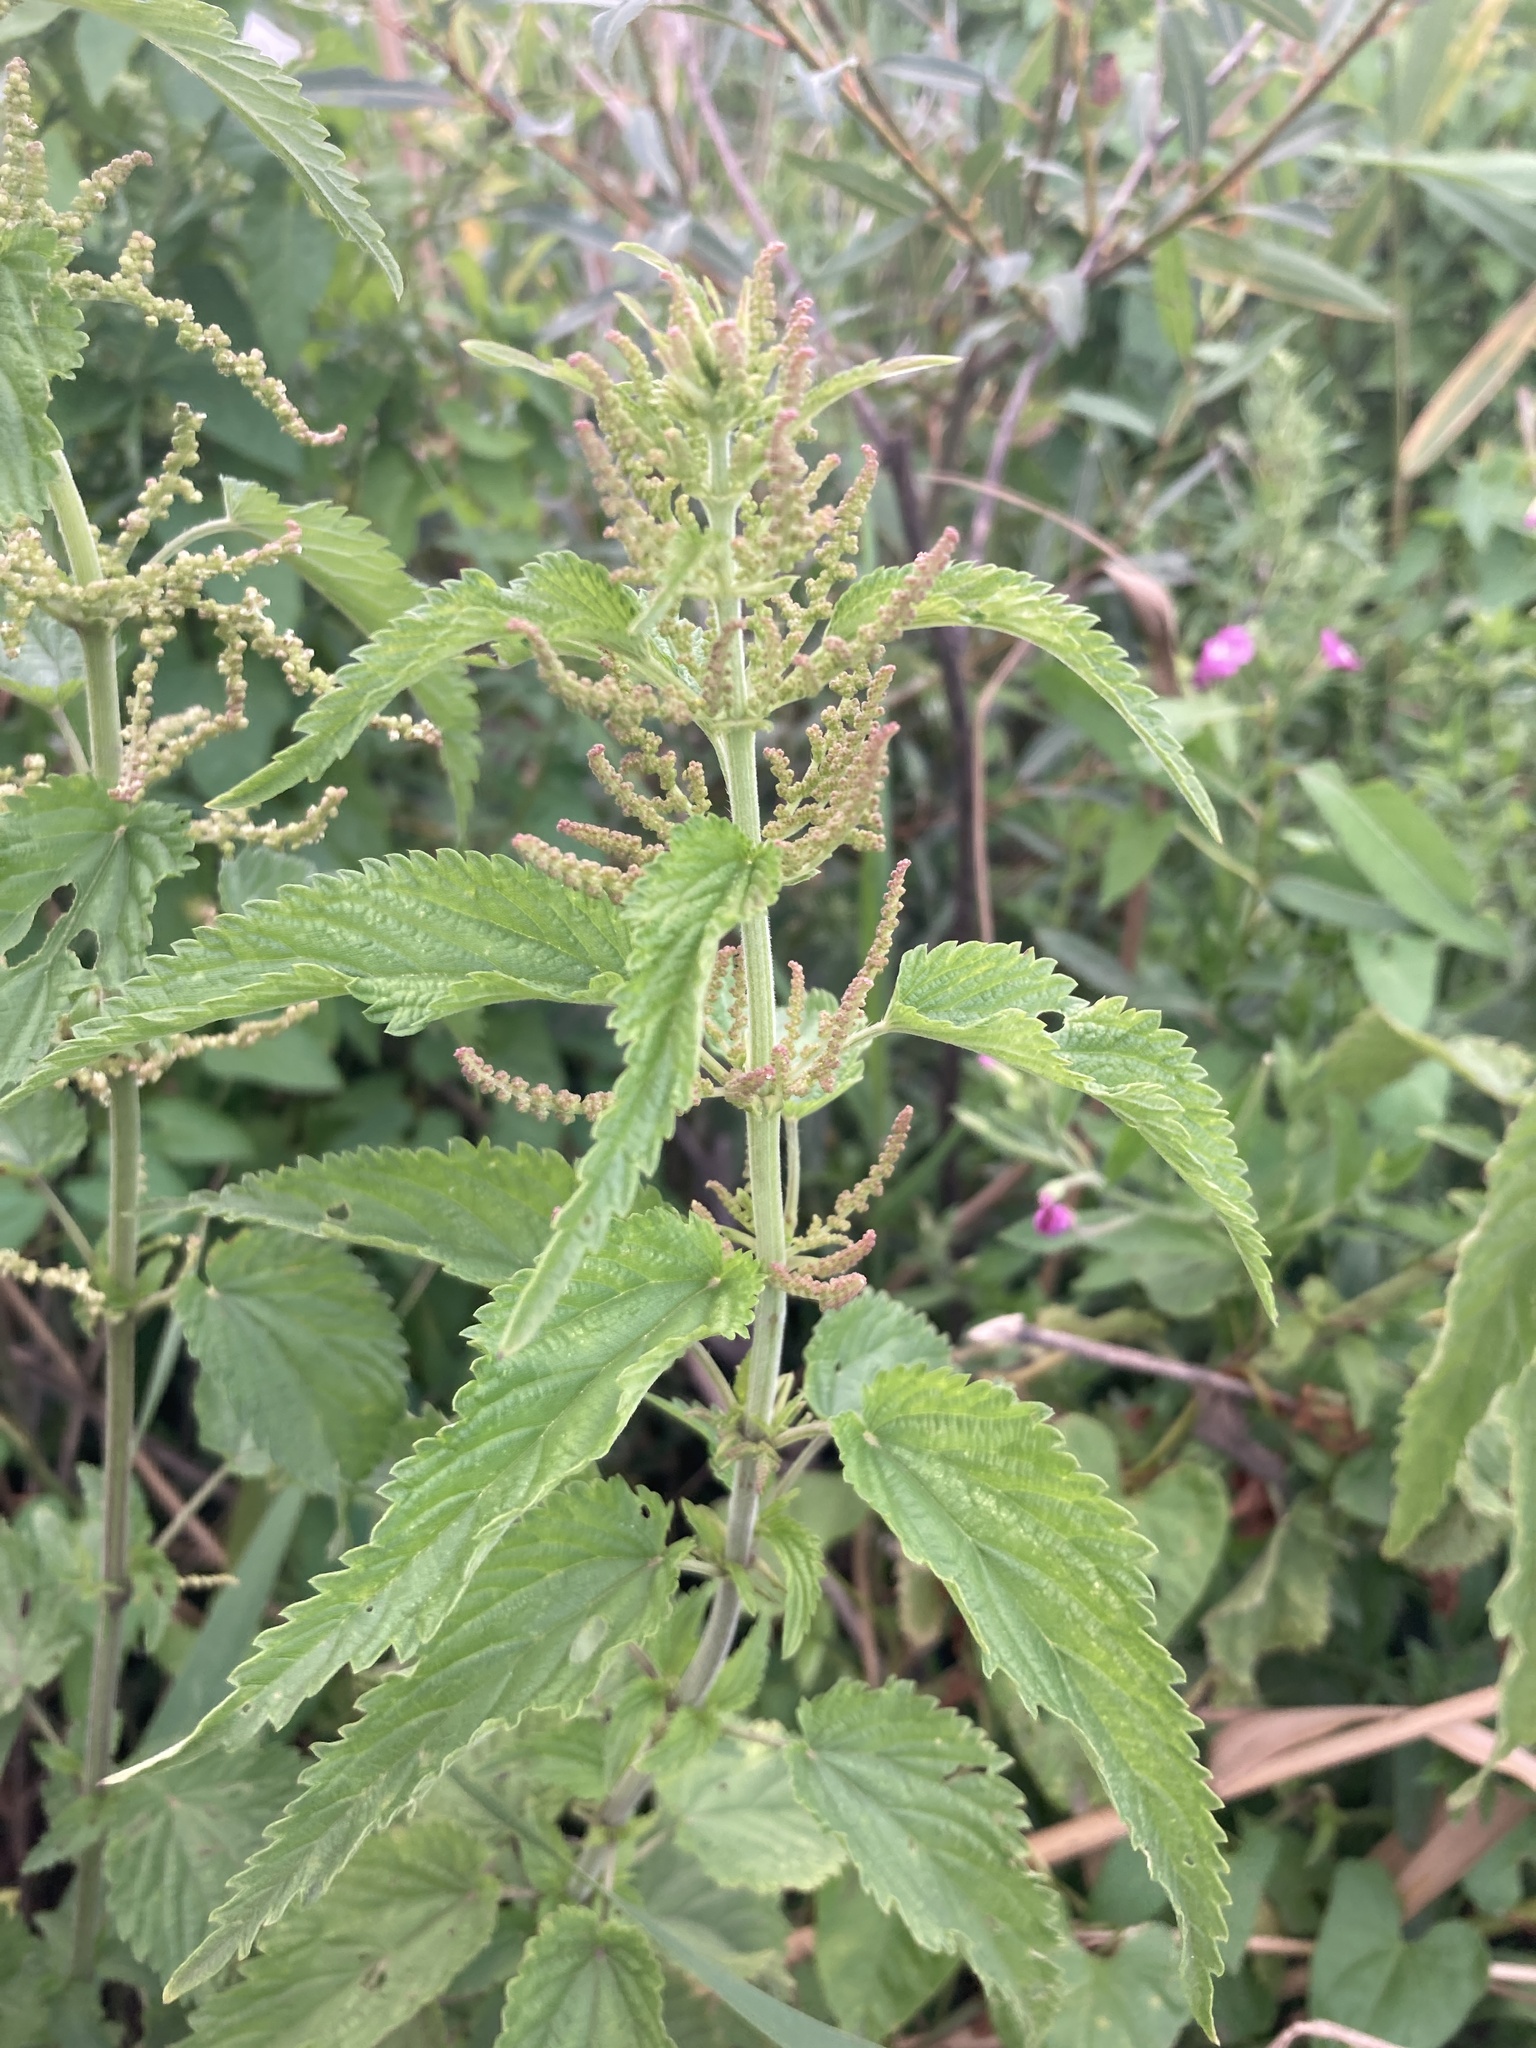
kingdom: Plantae
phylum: Tracheophyta
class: Magnoliopsida
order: Rosales
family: Urticaceae
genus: Urtica
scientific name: Urtica dioica
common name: Common nettle
